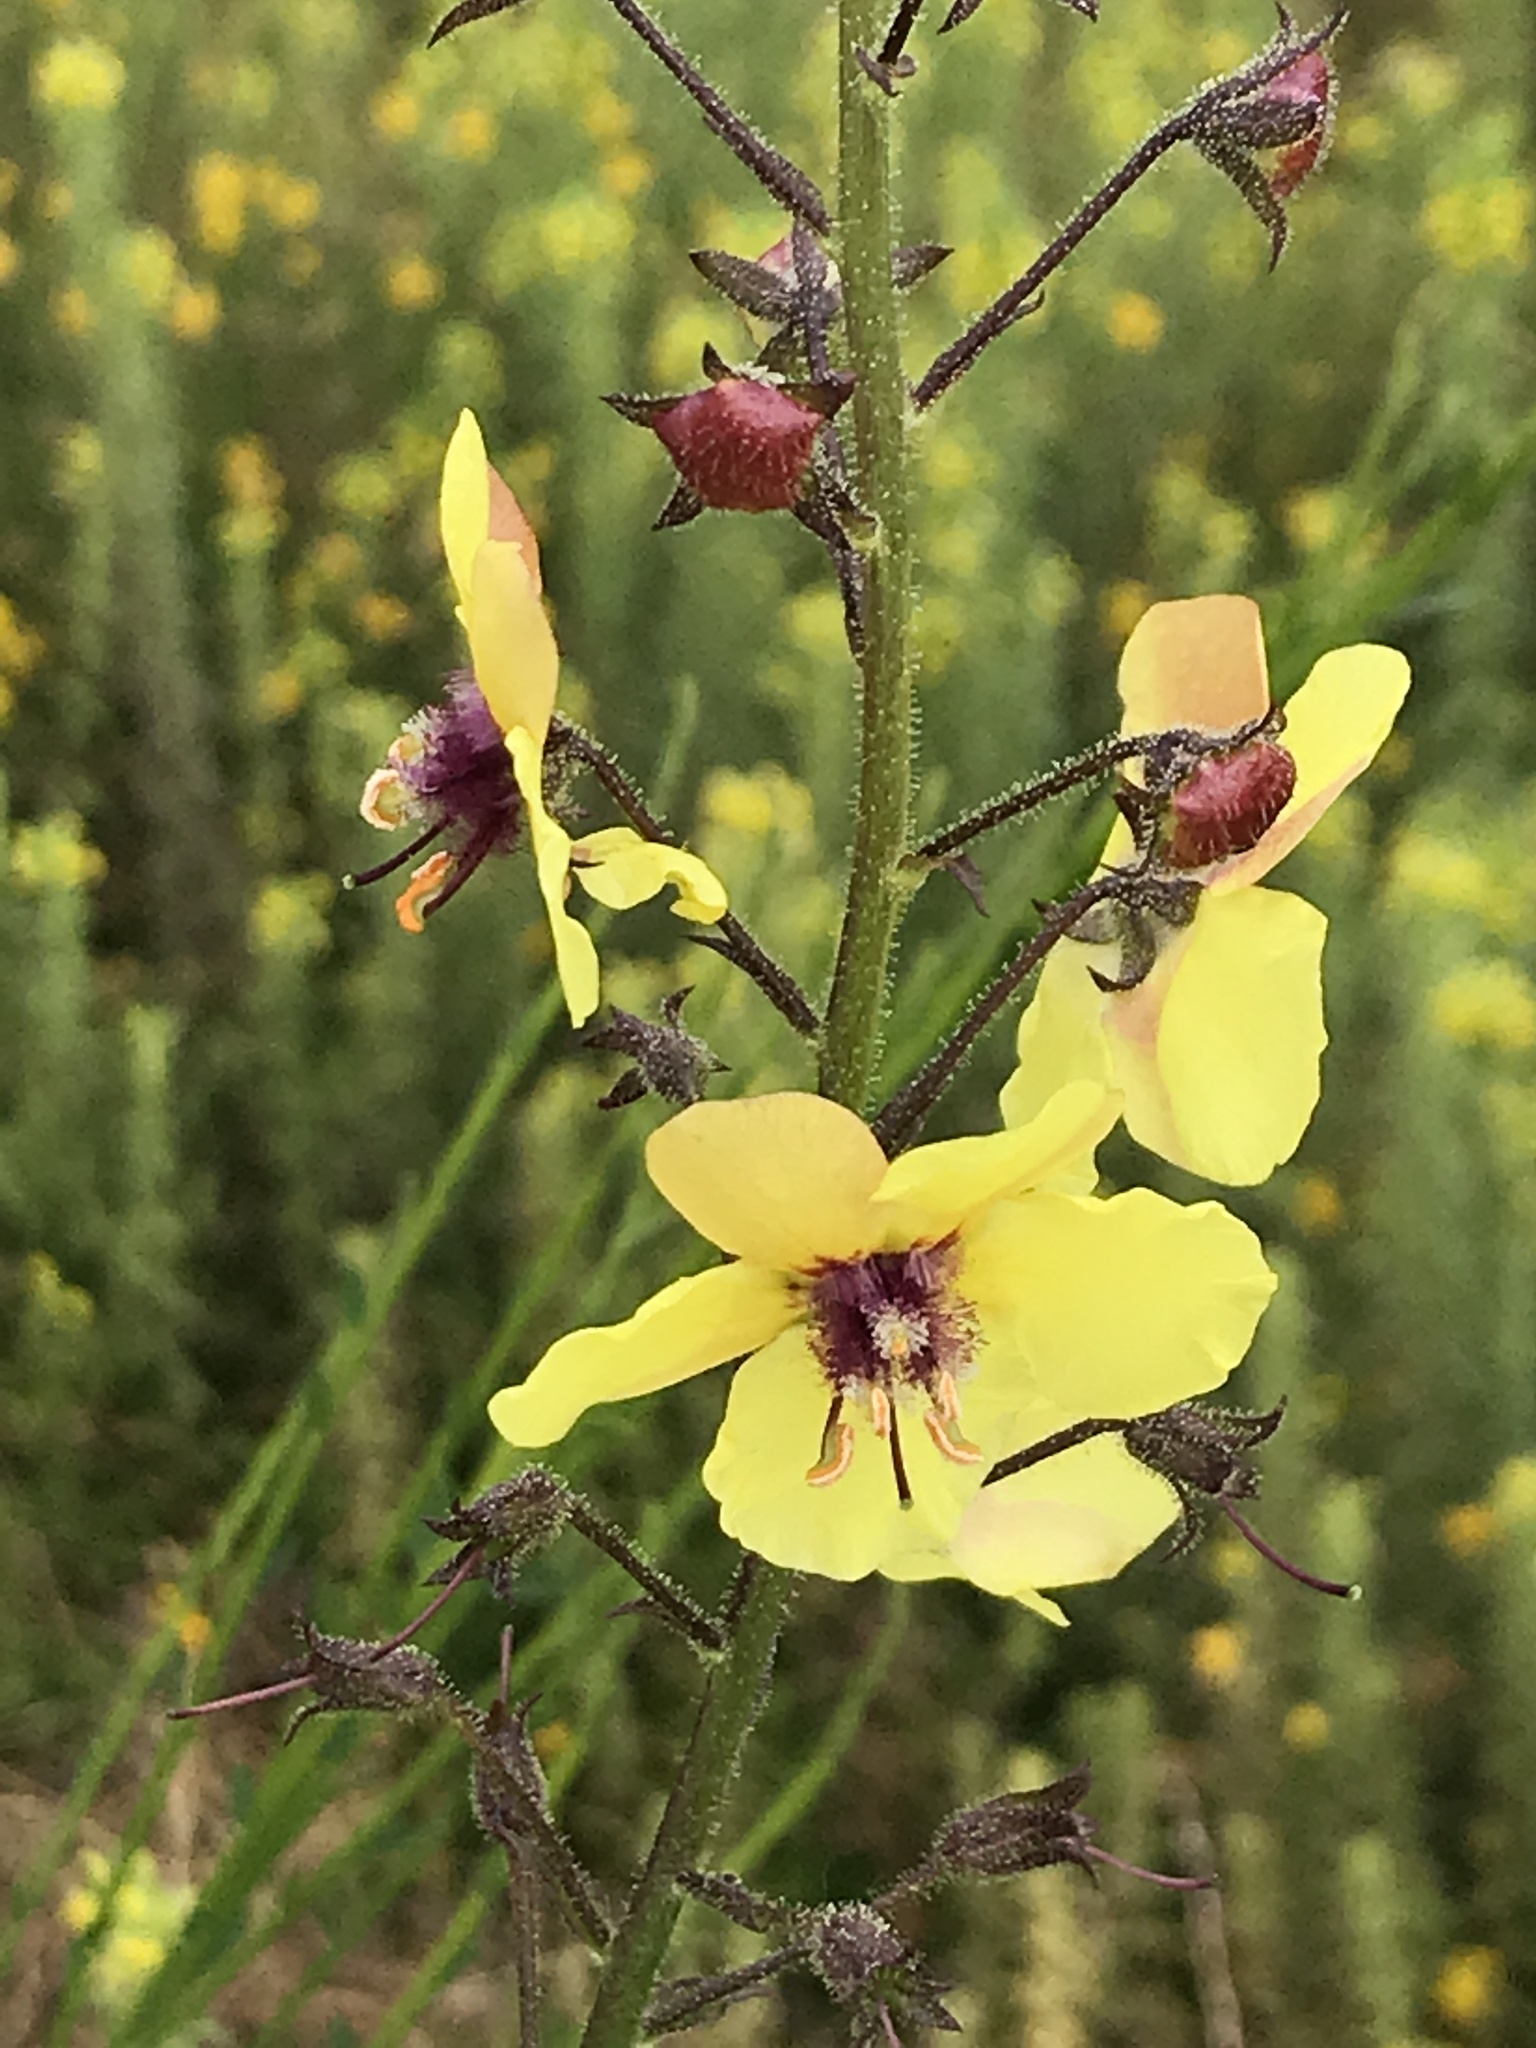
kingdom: Plantae
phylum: Tracheophyta
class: Magnoliopsida
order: Lamiales
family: Scrophulariaceae
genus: Verbascum
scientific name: Verbascum blattaria
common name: Moth mullein
